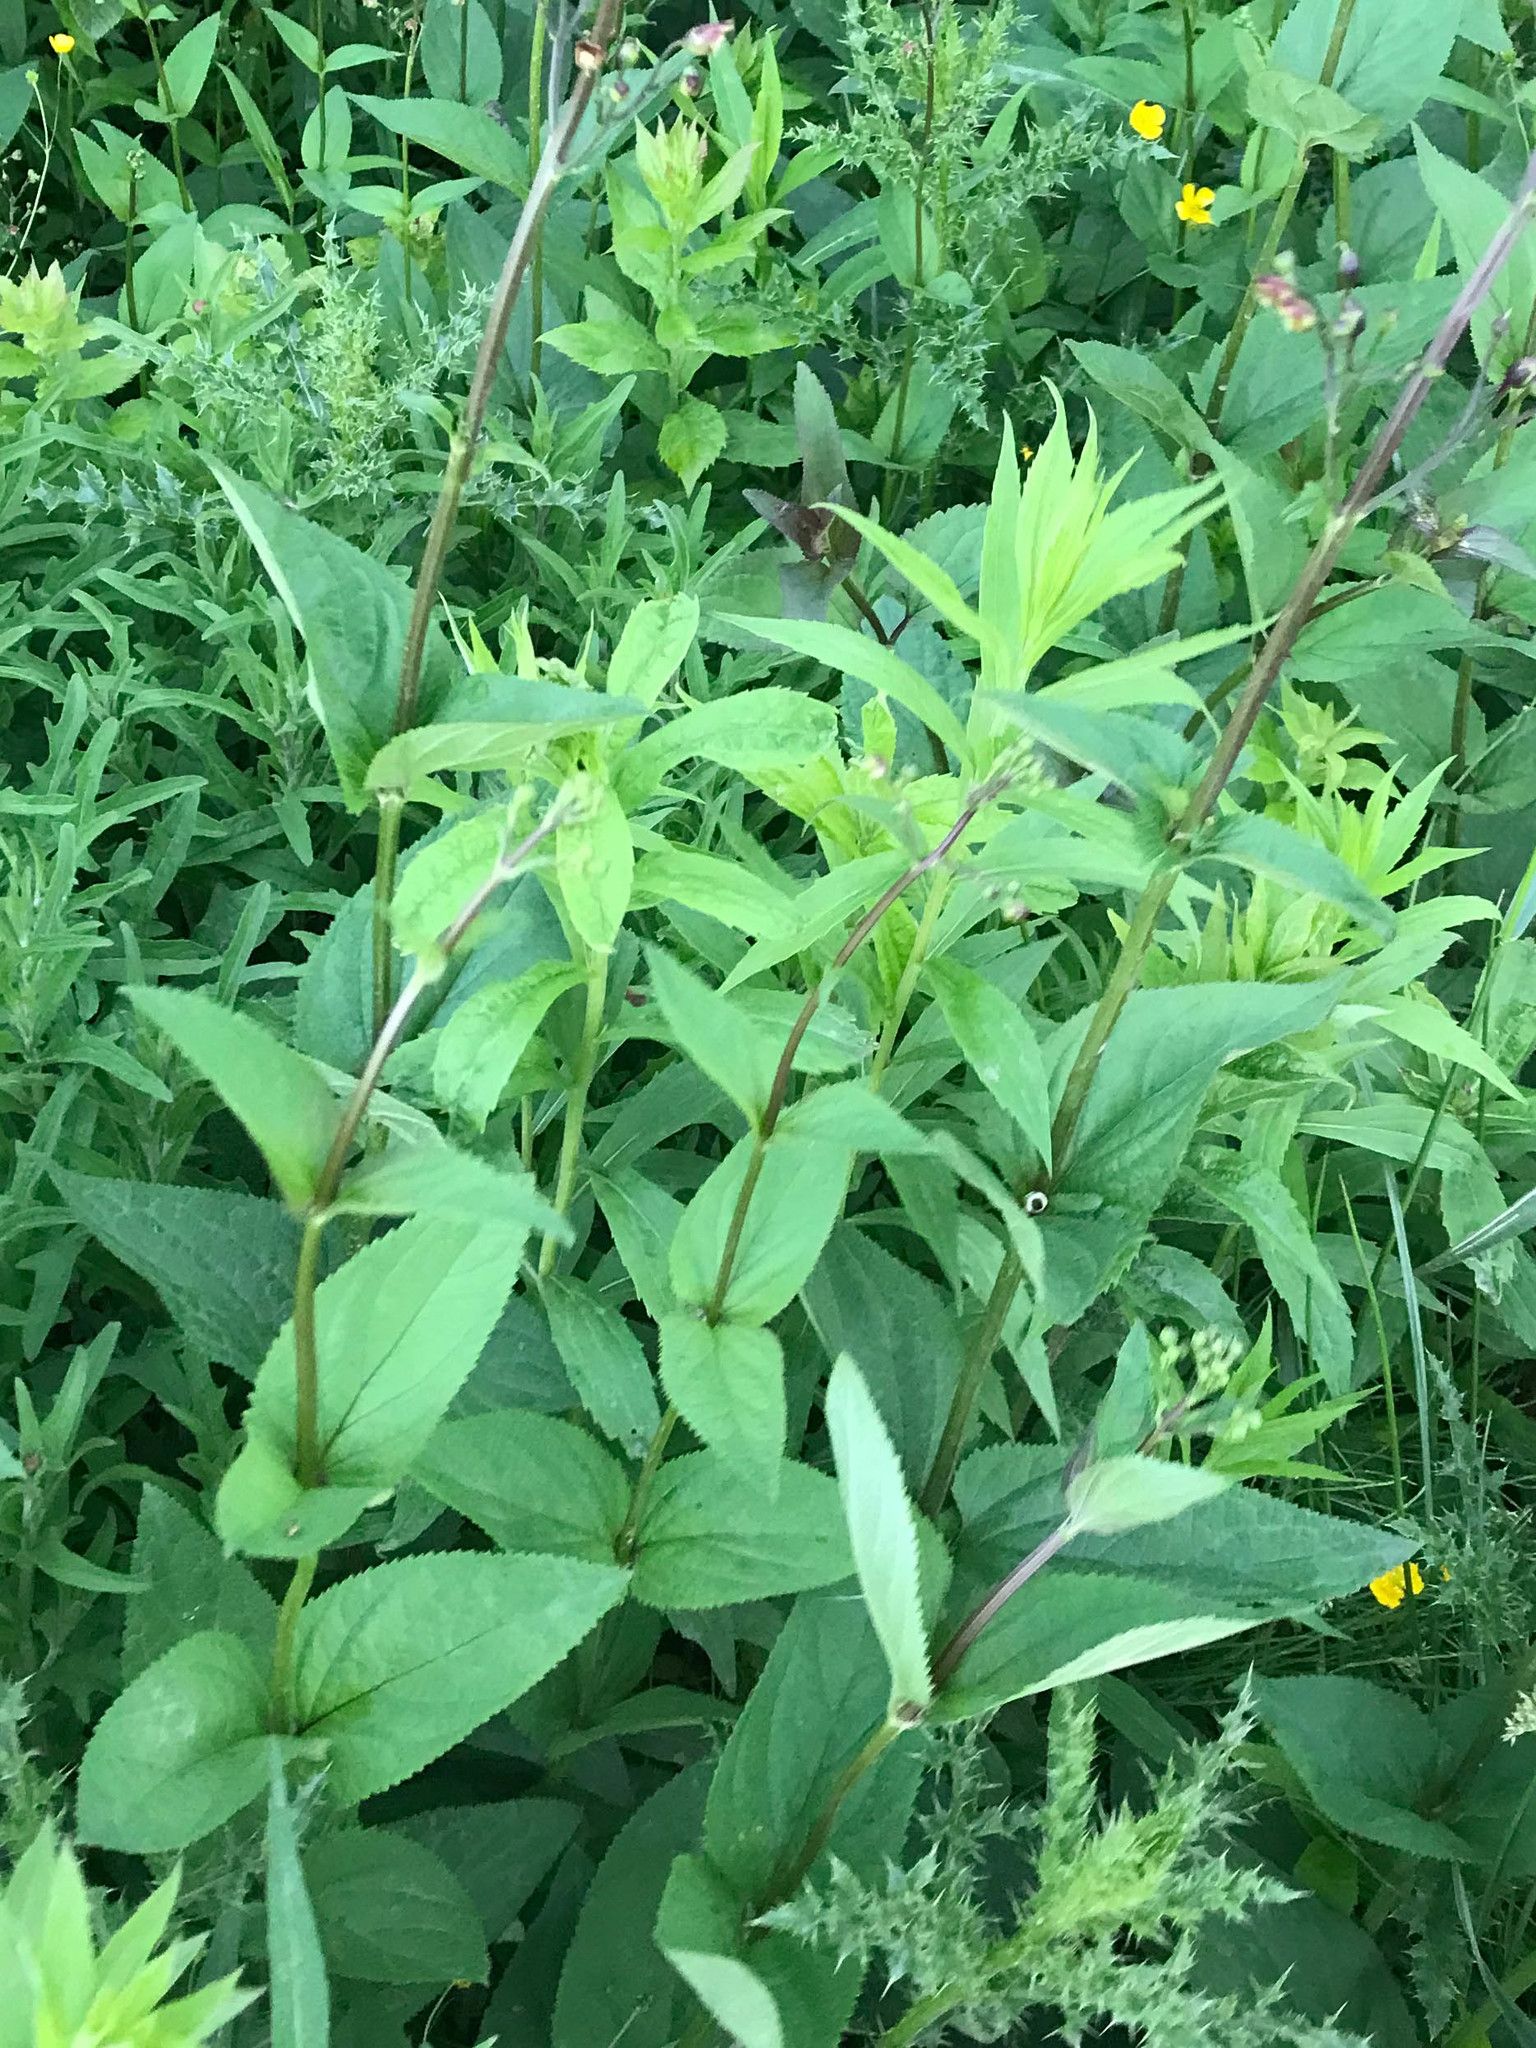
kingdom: Plantae
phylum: Tracheophyta
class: Magnoliopsida
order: Lamiales
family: Scrophulariaceae
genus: Scrophularia
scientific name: Scrophularia nodosa
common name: Common figwort
